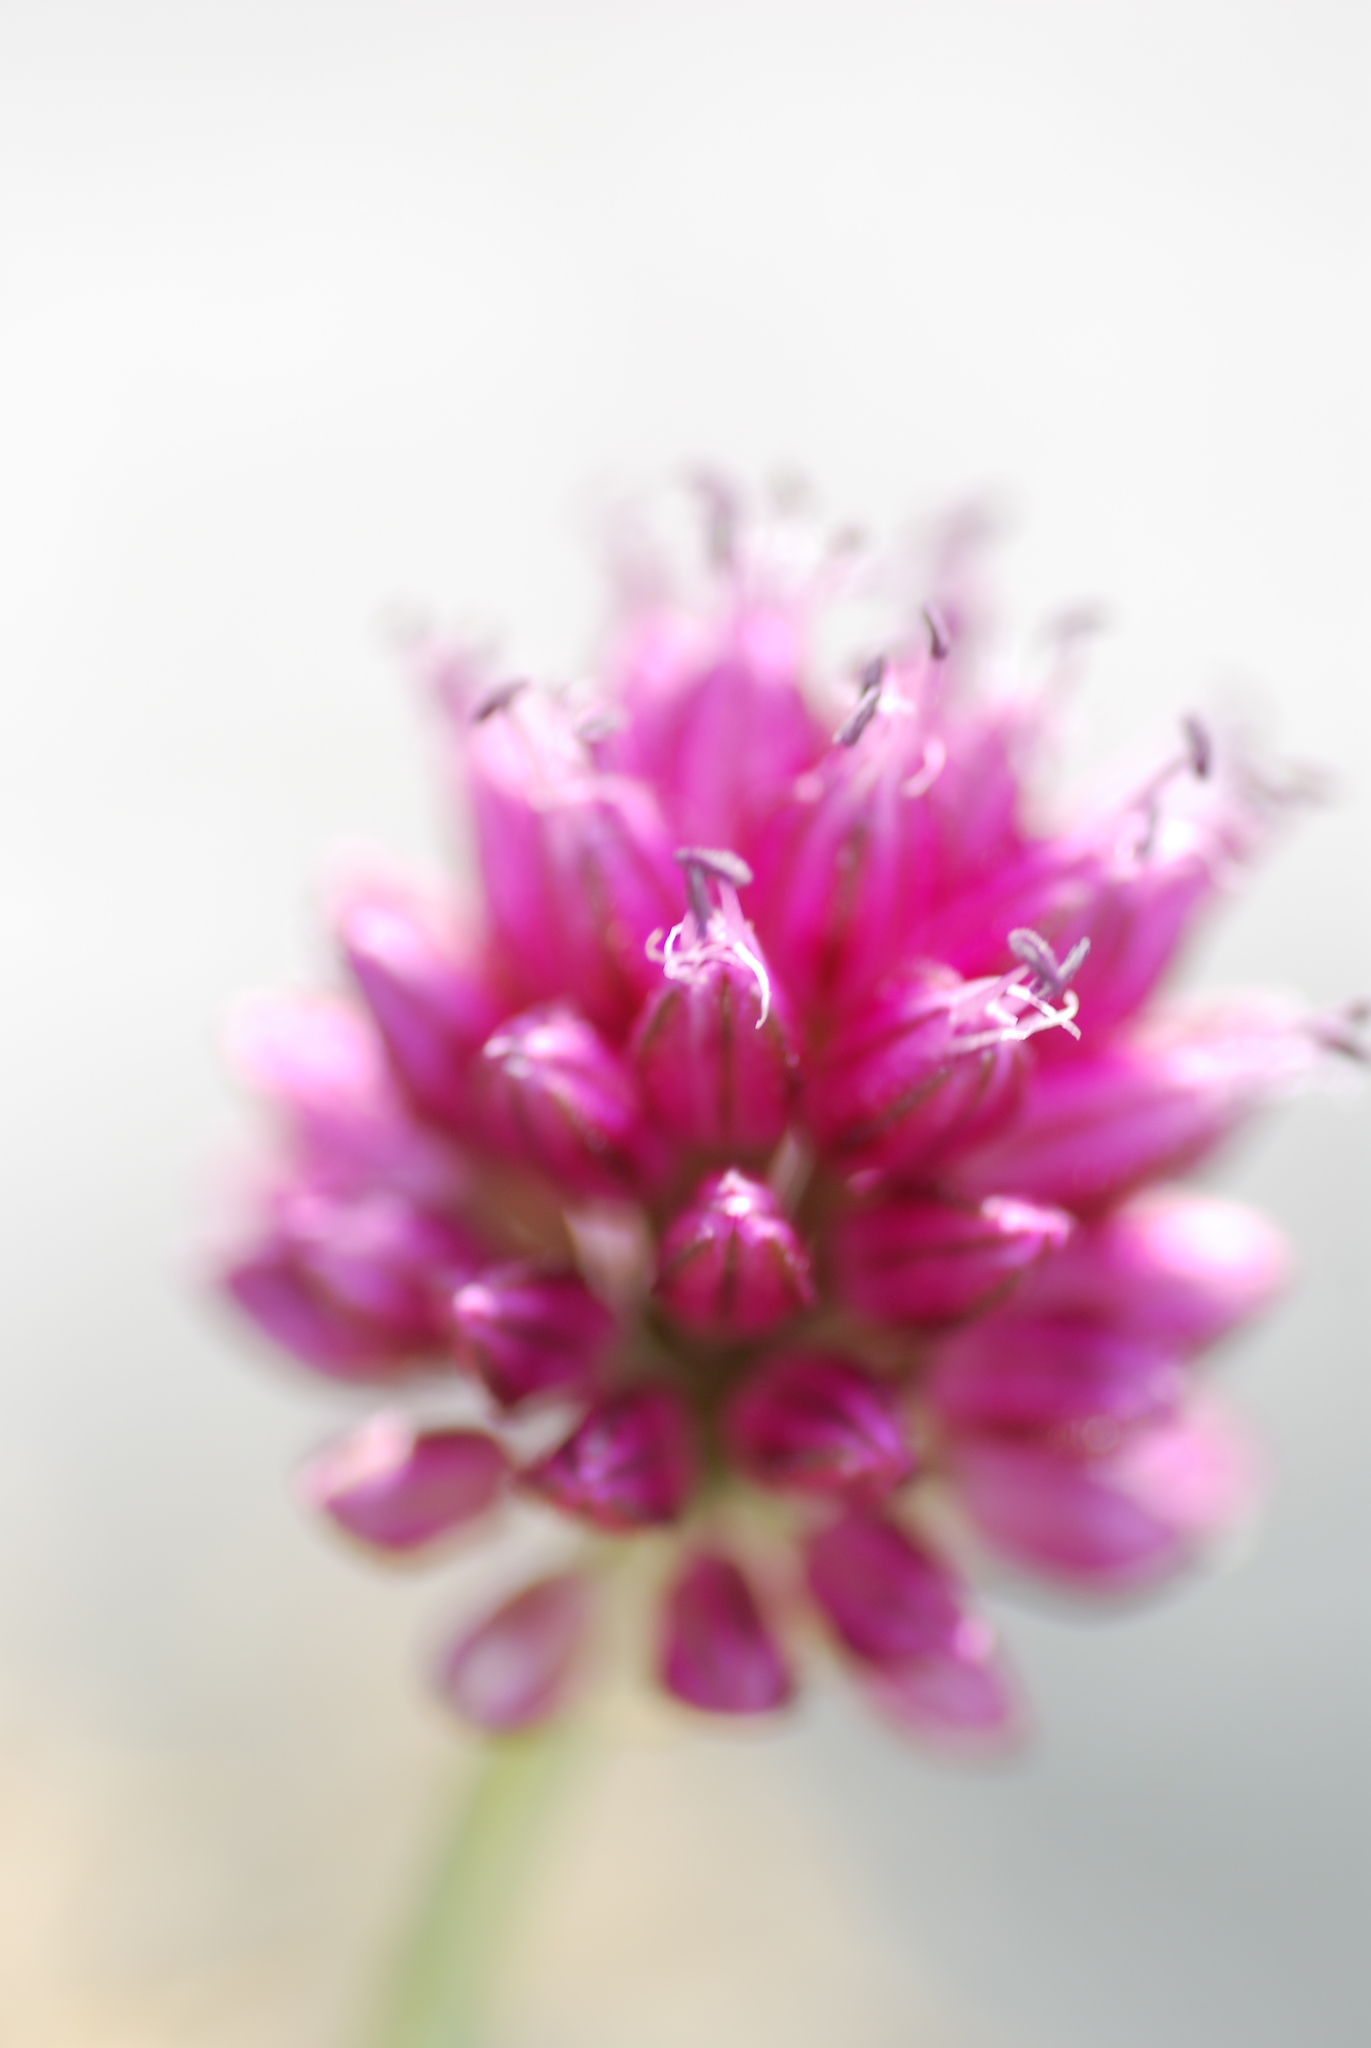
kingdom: Plantae
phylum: Tracheophyta
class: Liliopsida
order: Asparagales
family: Amaryllidaceae
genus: Allium
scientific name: Allium sphaerocephalon
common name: Round-headed leek
